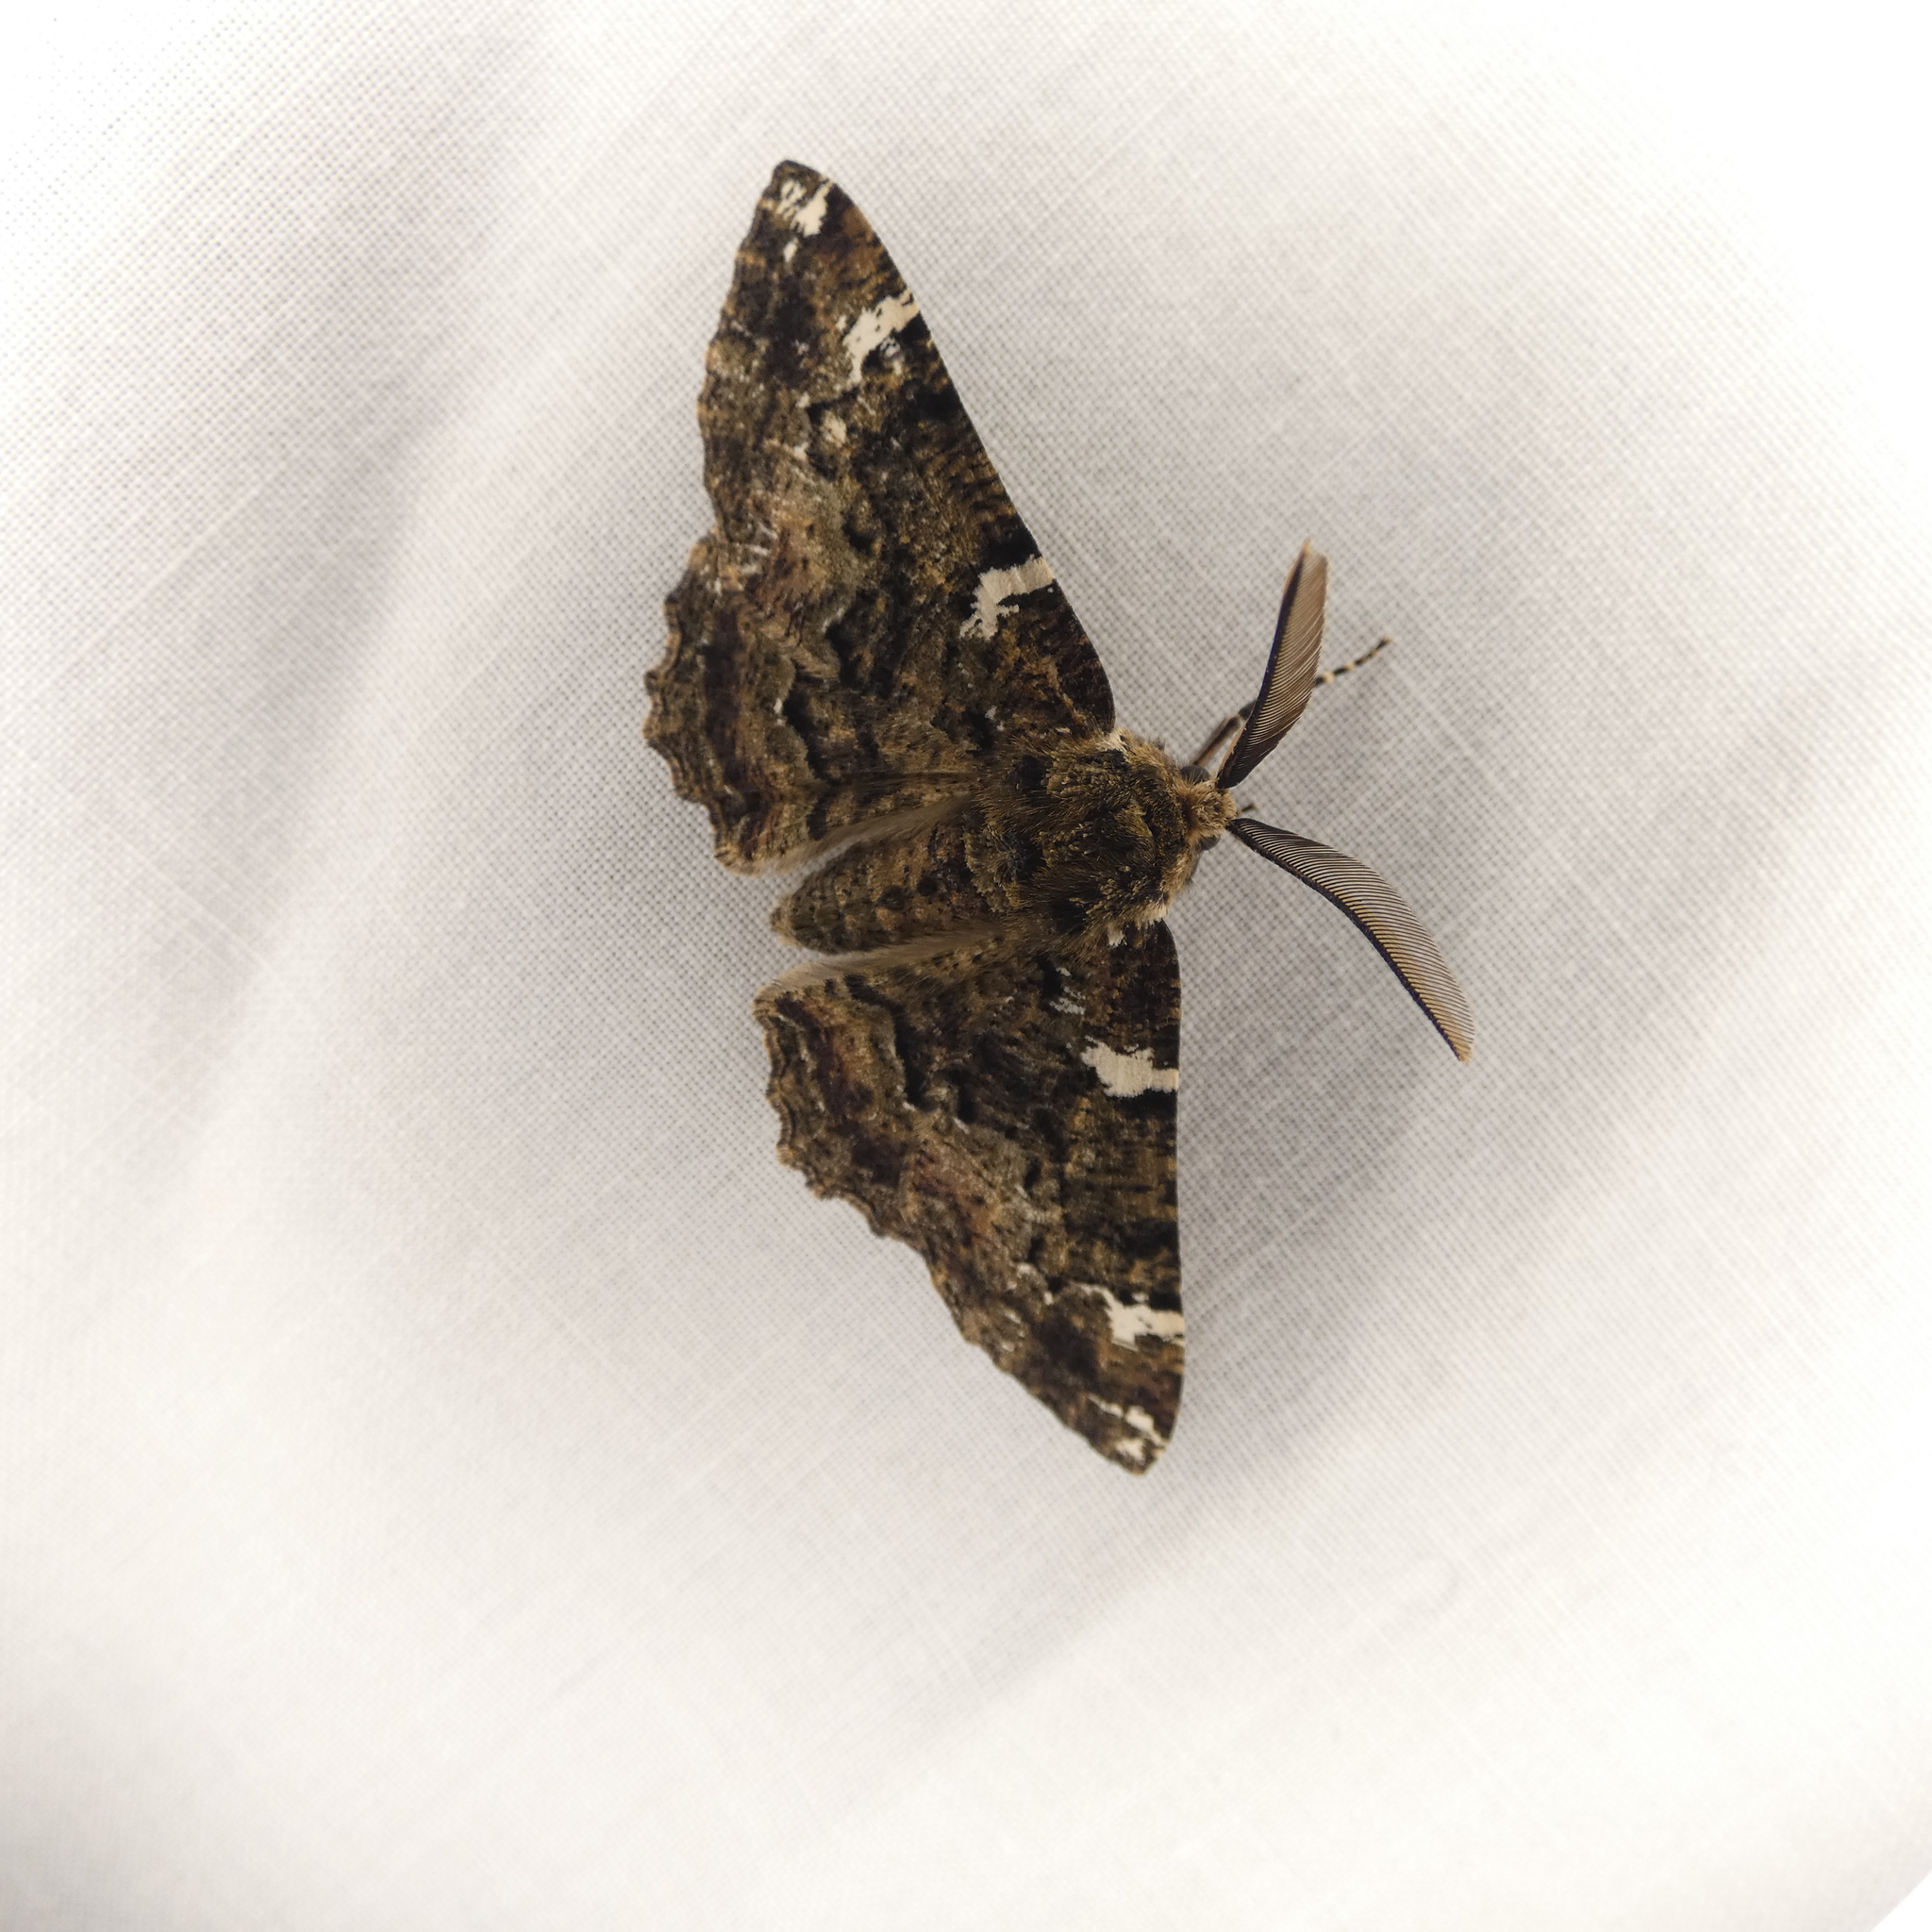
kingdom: Animalia
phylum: Arthropoda
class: Insecta
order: Lepidoptera
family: Geometridae
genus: Phaeoura
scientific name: Phaeoura quernaria
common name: Oak beauty
